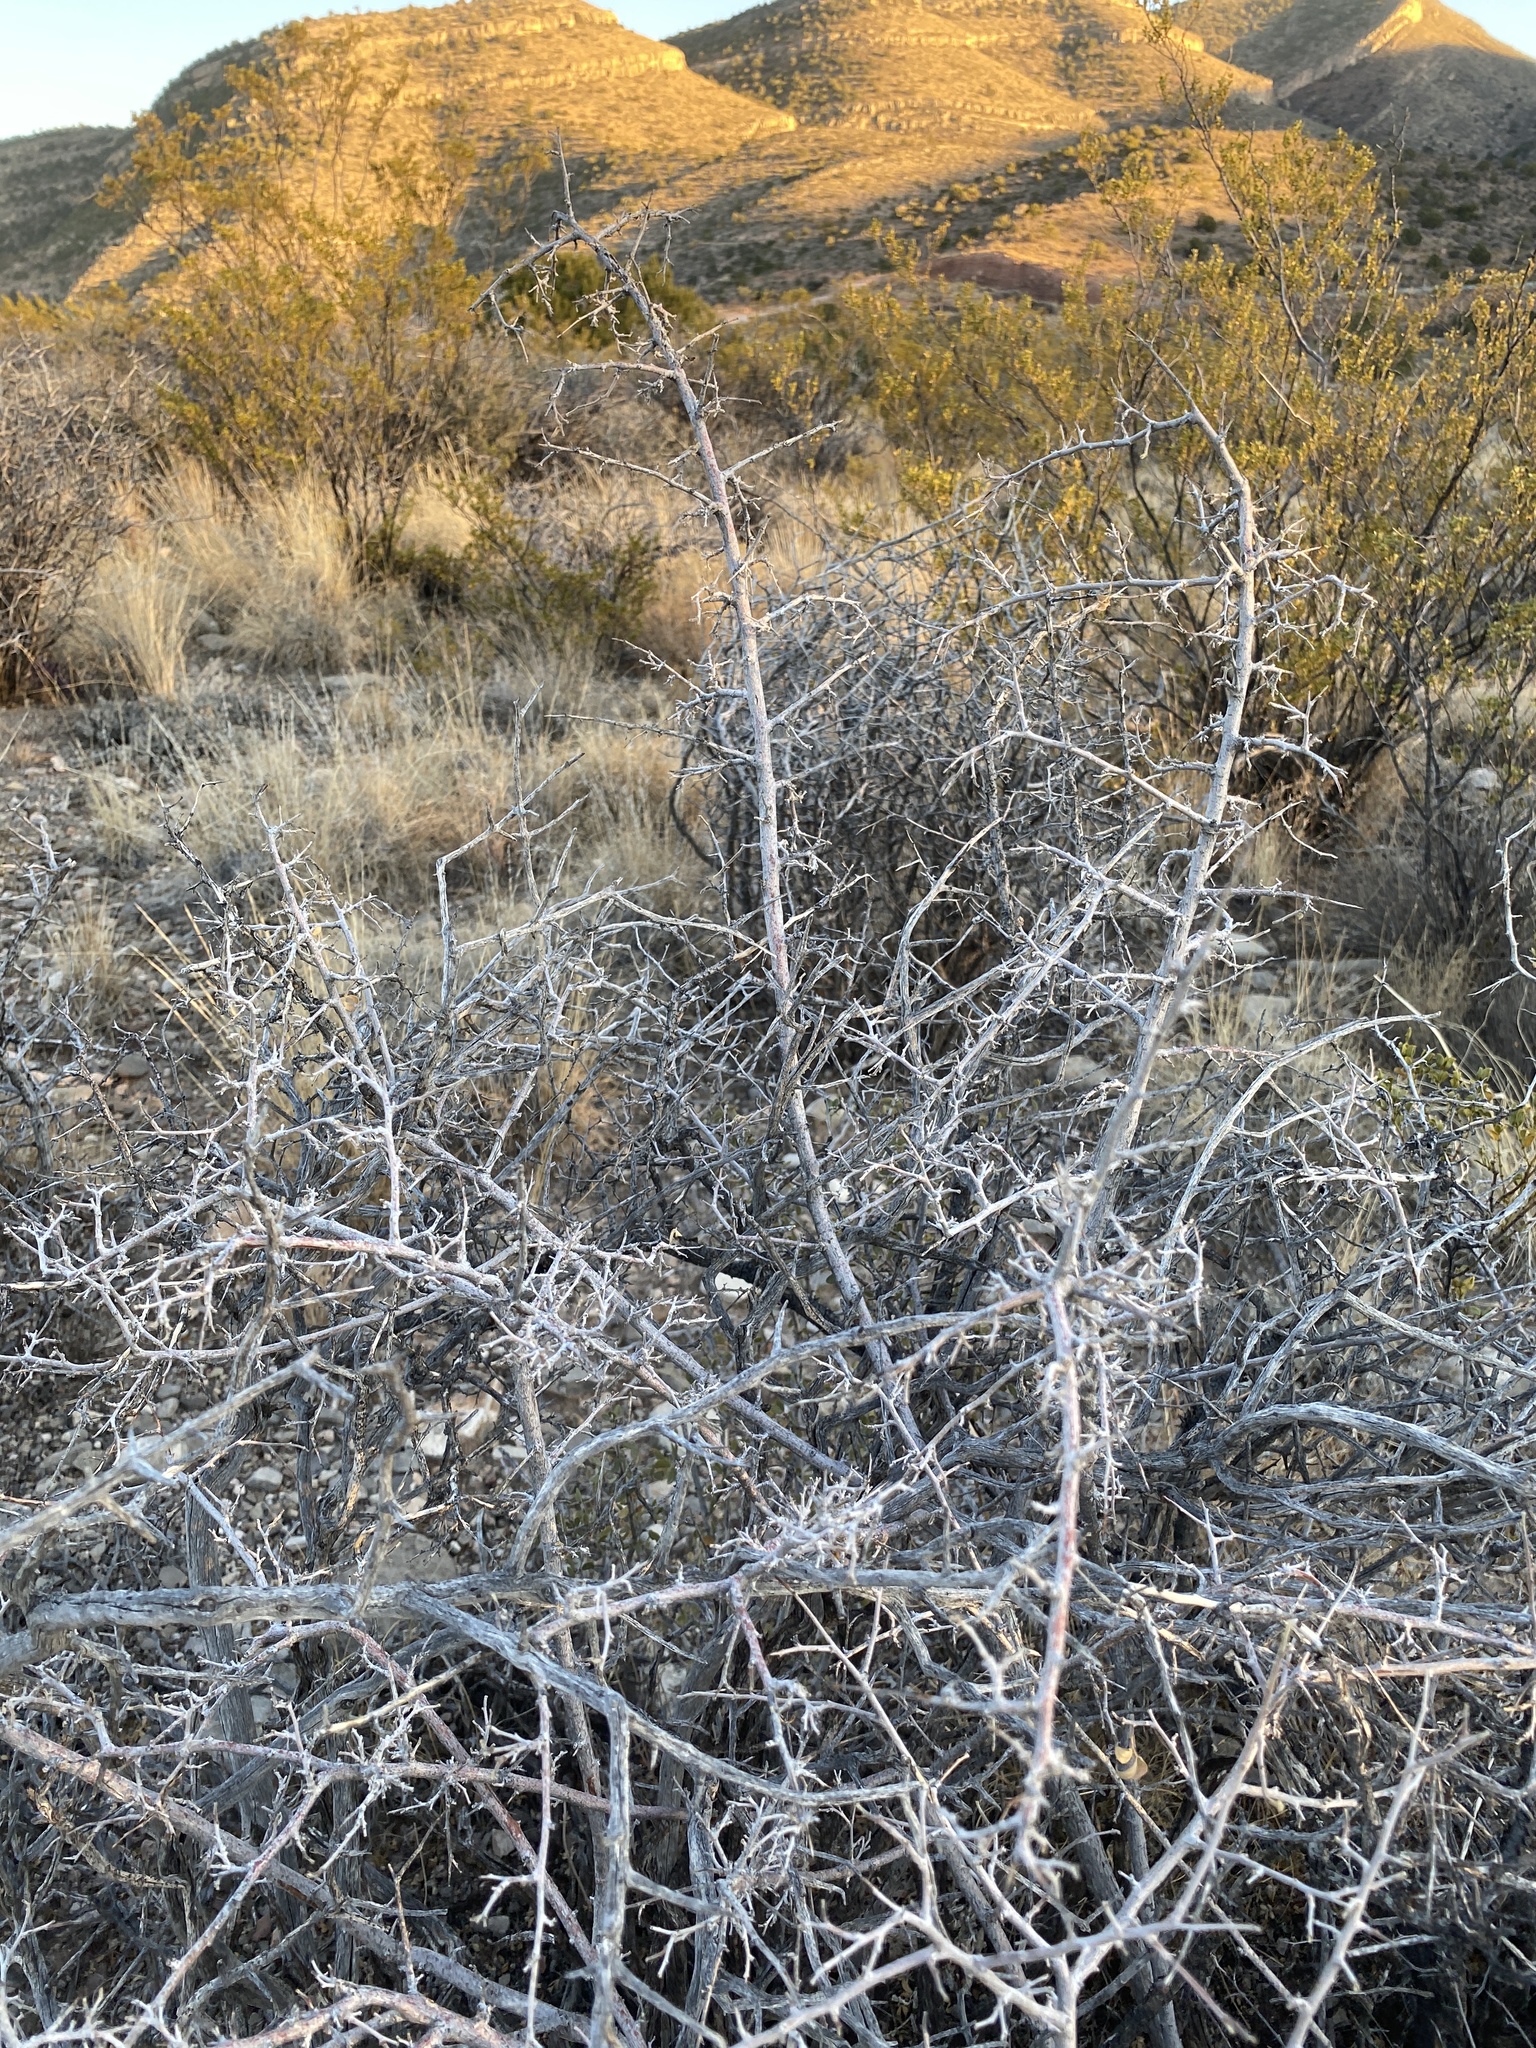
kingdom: Plantae
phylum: Tracheophyta
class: Magnoliopsida
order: Sapindales
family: Anacardiaceae
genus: Rhus
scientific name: Rhus microphylla
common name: Desert sumac
